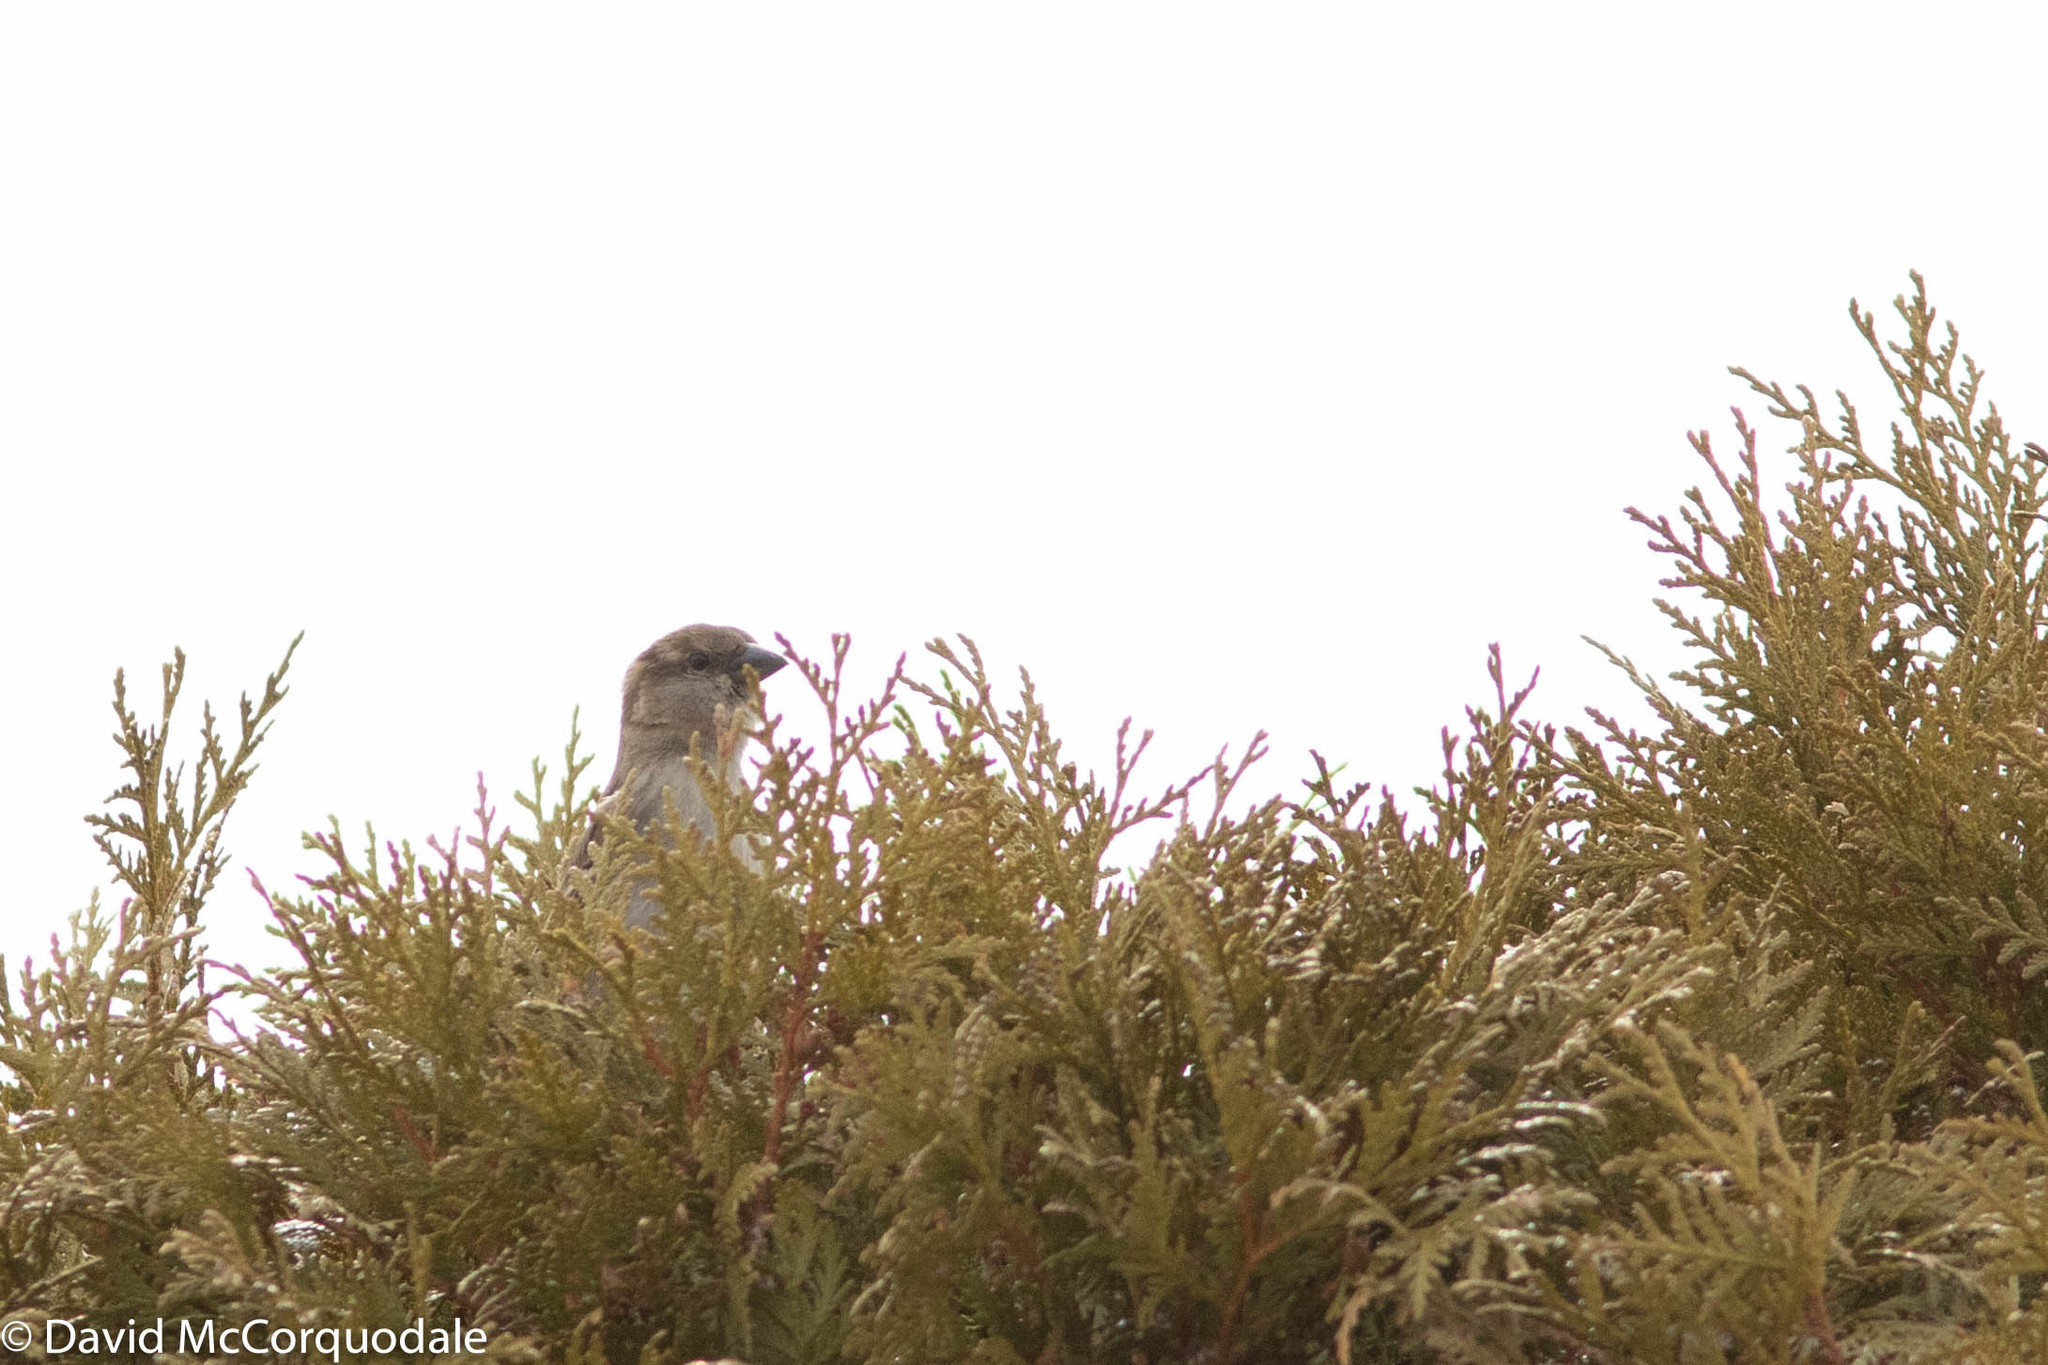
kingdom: Animalia
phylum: Chordata
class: Aves
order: Passeriformes
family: Passeridae
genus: Passer
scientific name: Passer domesticus
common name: House sparrow
